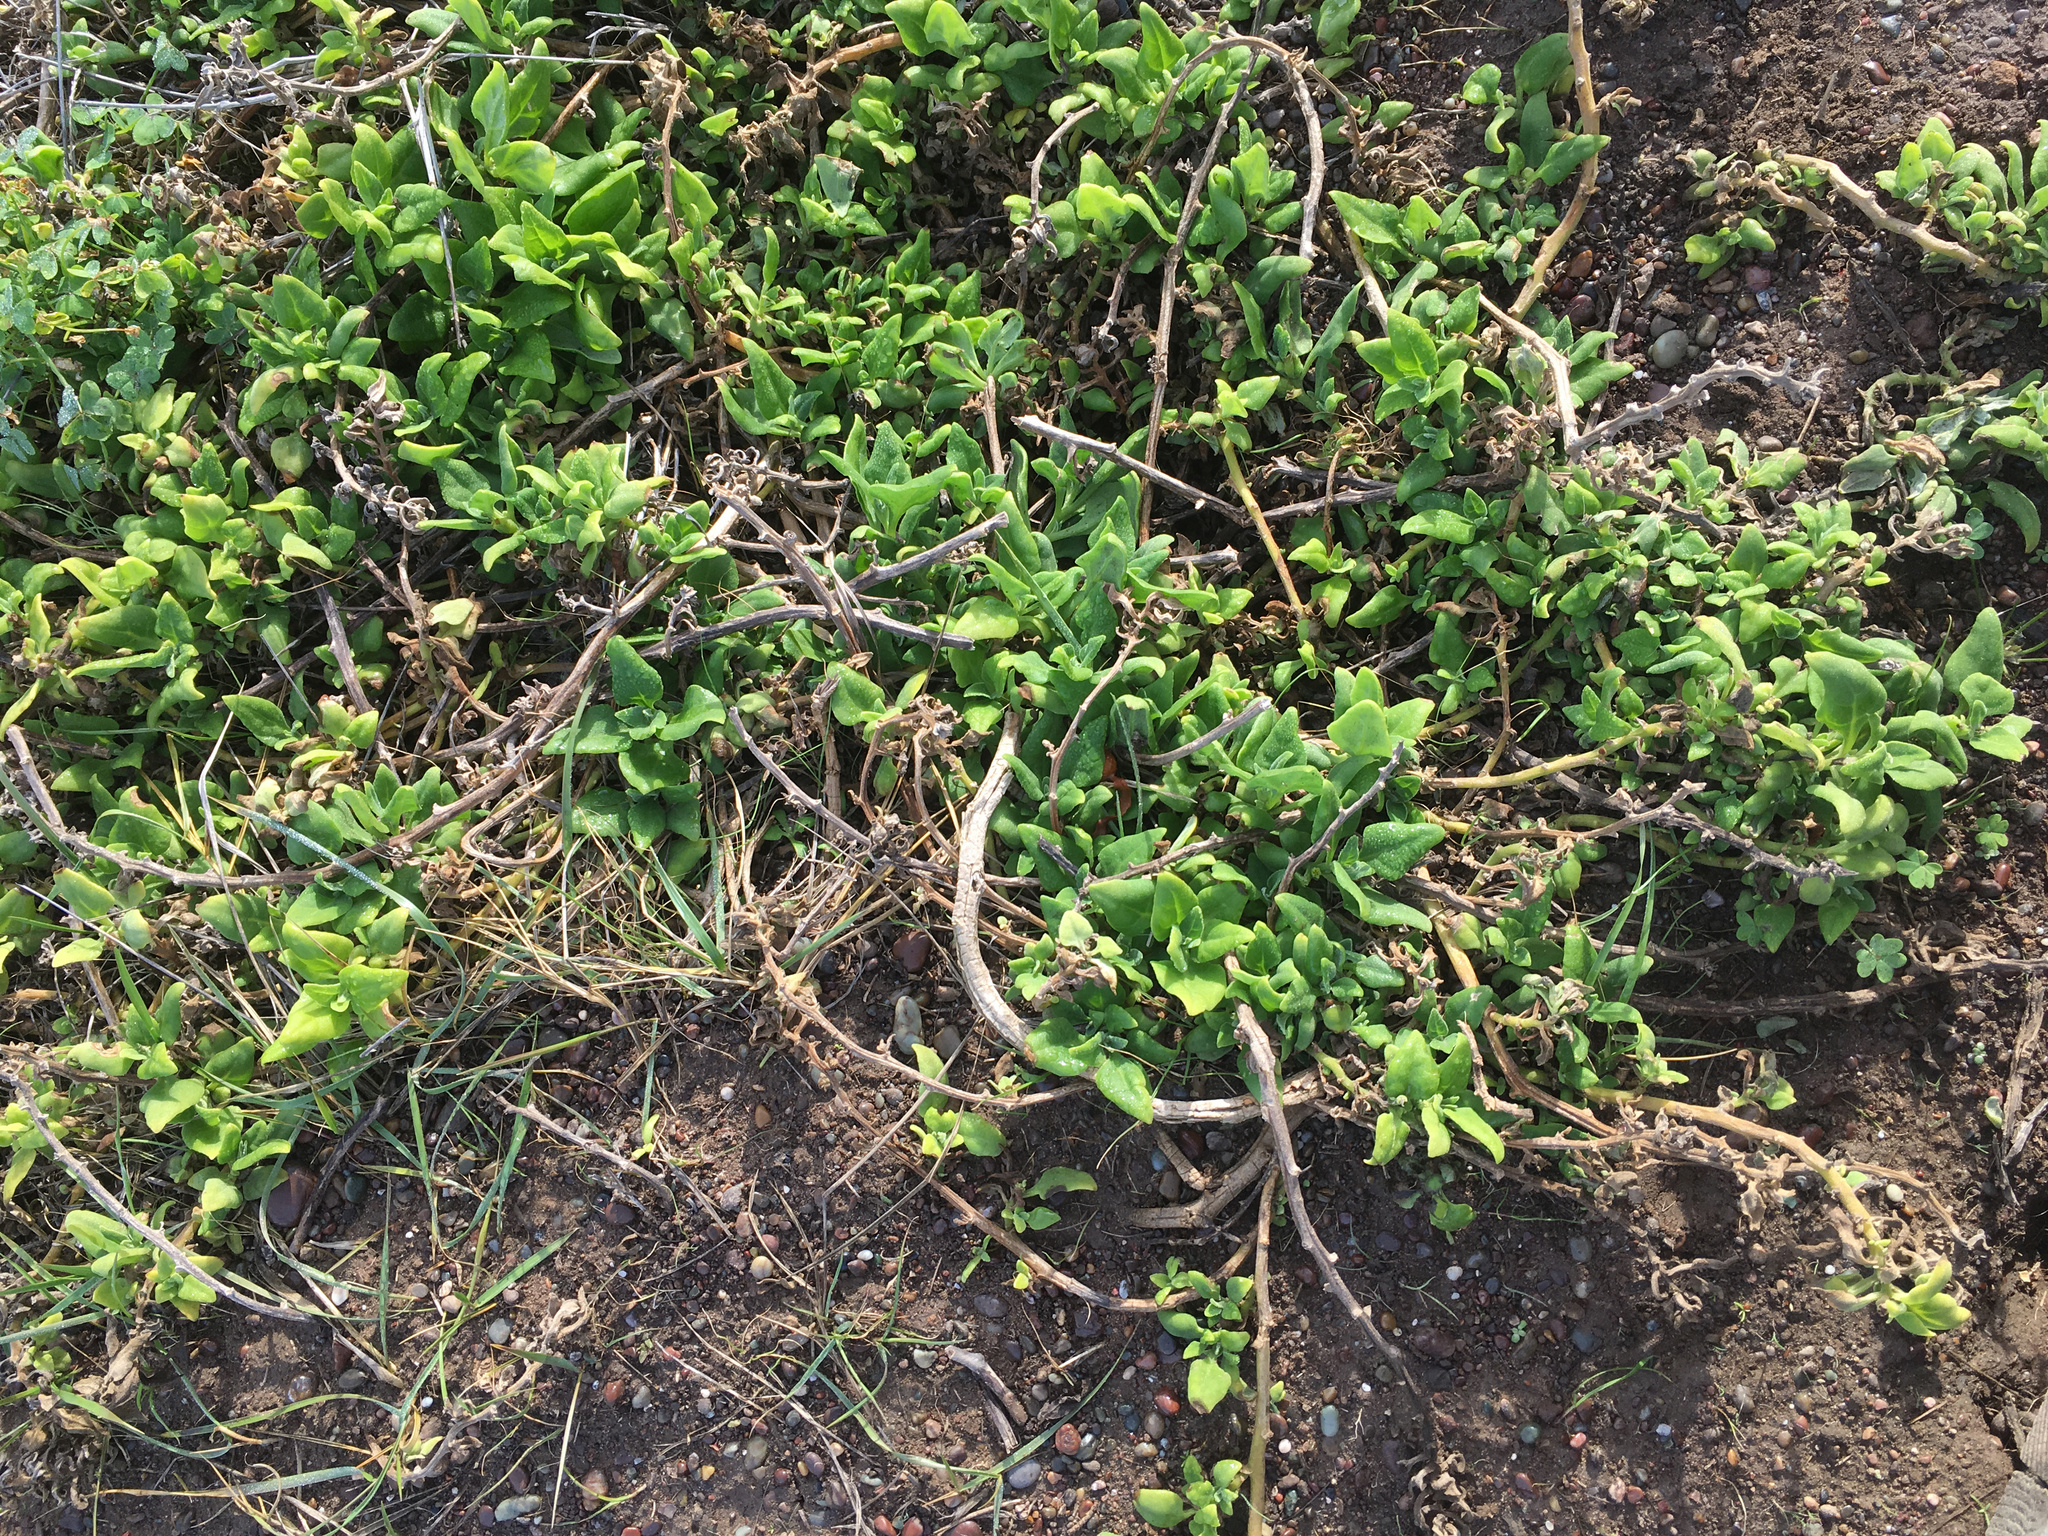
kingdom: Plantae
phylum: Tracheophyta
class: Magnoliopsida
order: Caryophyllales
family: Aizoaceae
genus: Tetragonia
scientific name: Tetragonia tetragonoides
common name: New zealand-spinach
